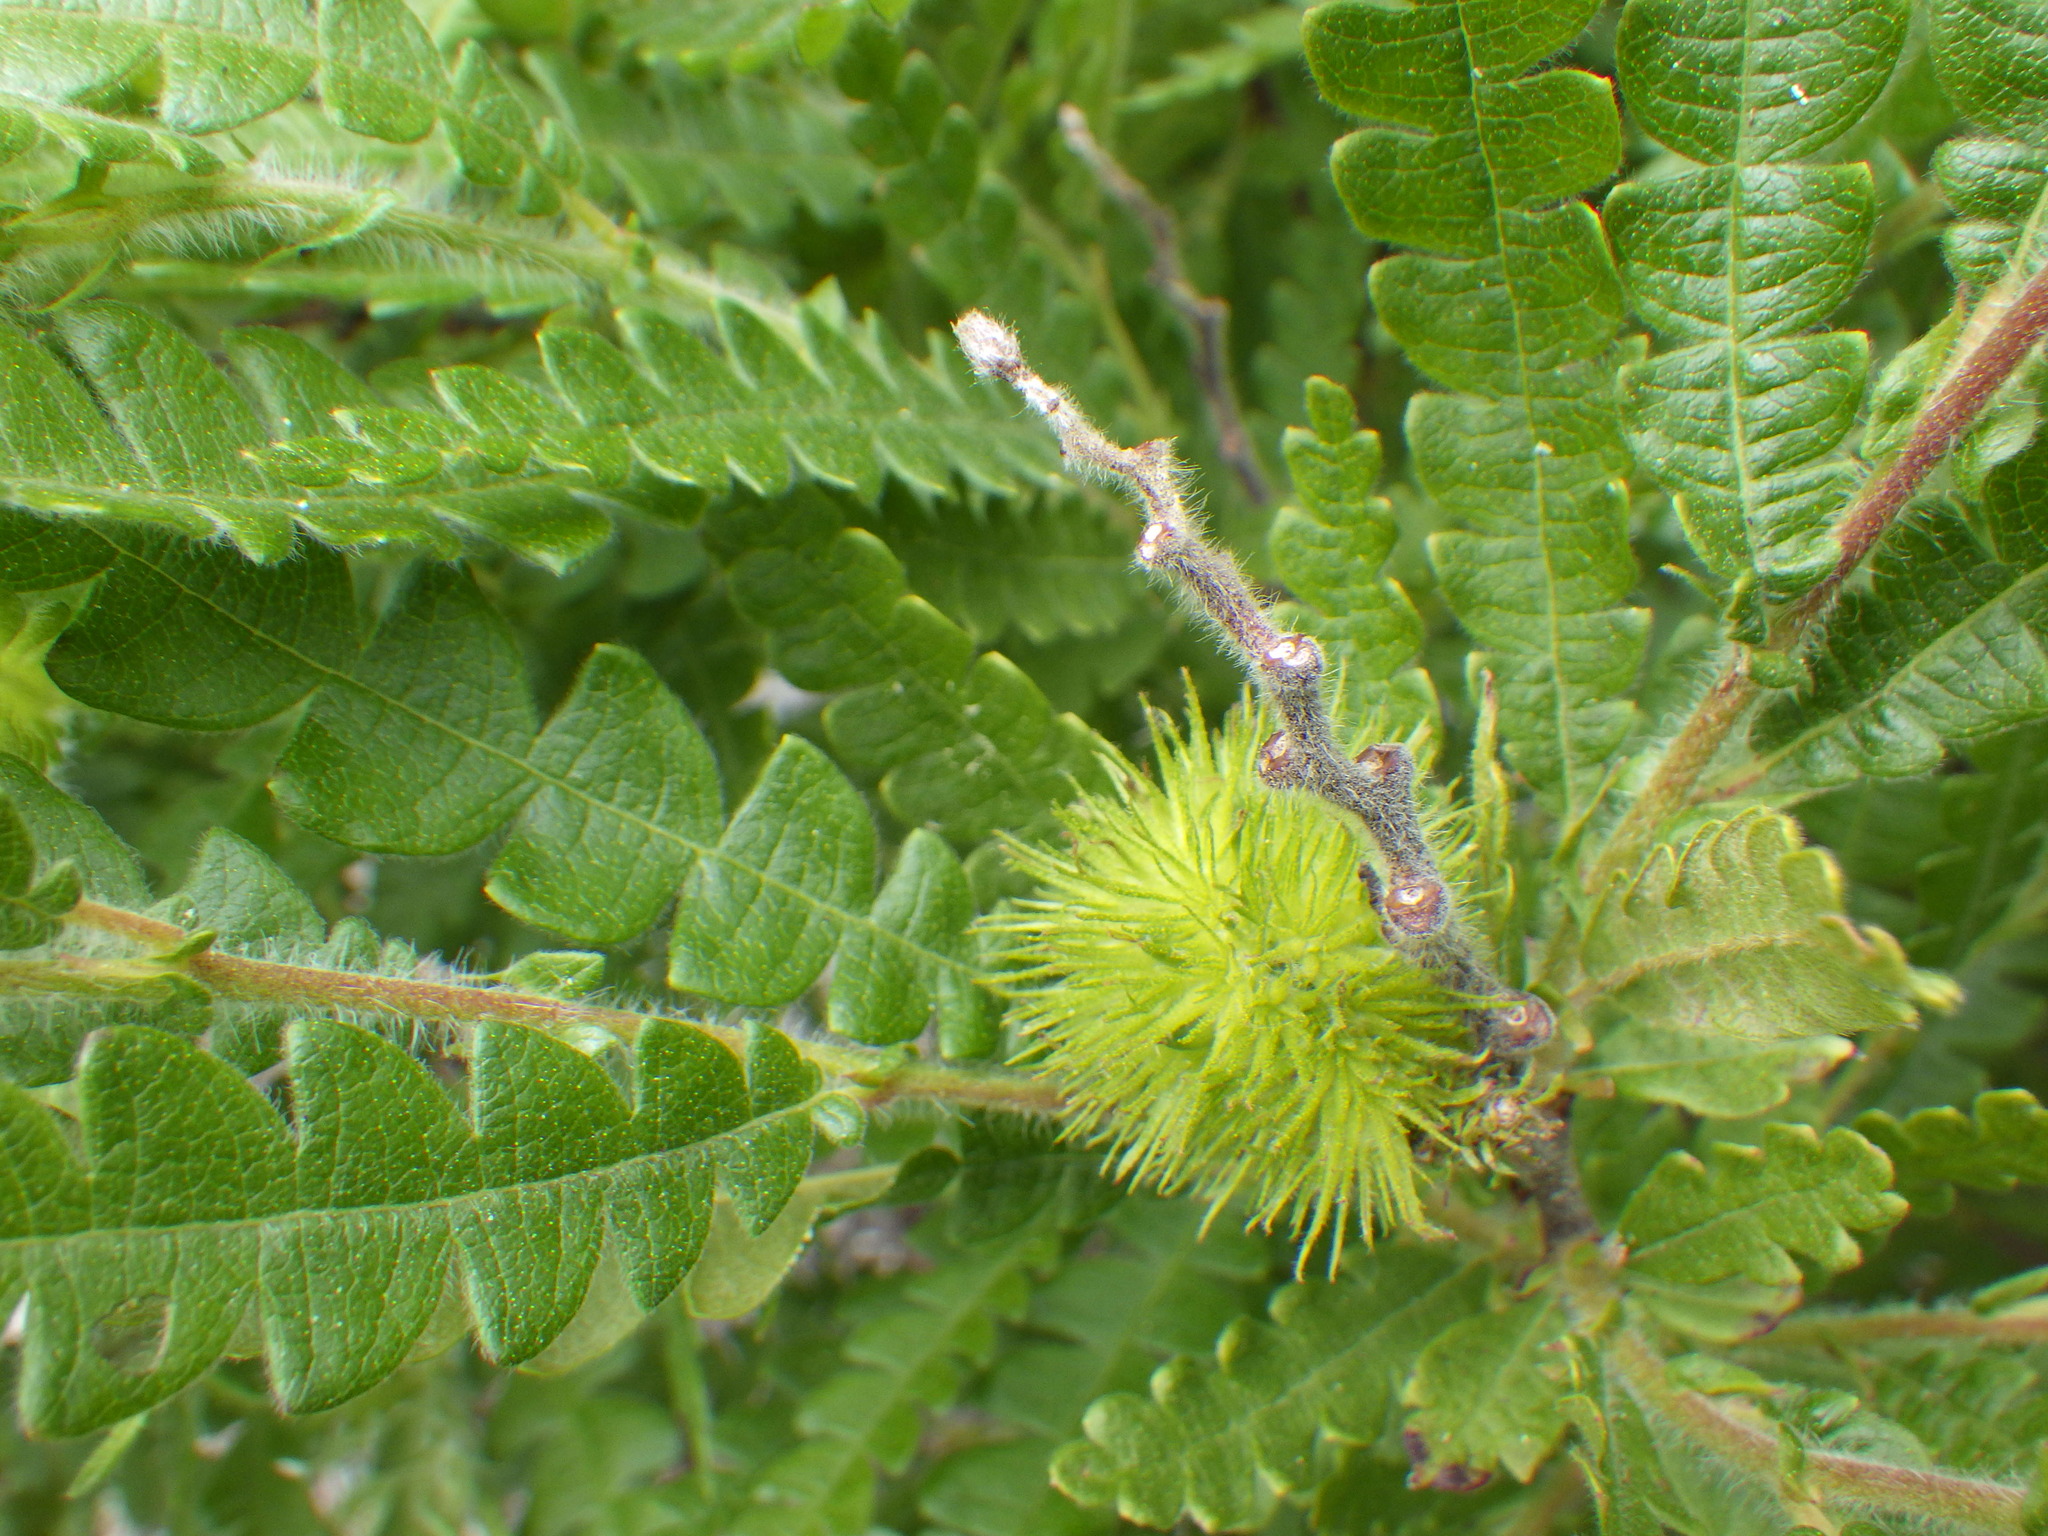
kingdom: Plantae
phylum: Tracheophyta
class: Magnoliopsida
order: Fagales
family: Myricaceae
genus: Comptonia
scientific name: Comptonia peregrina
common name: Sweet-fern
